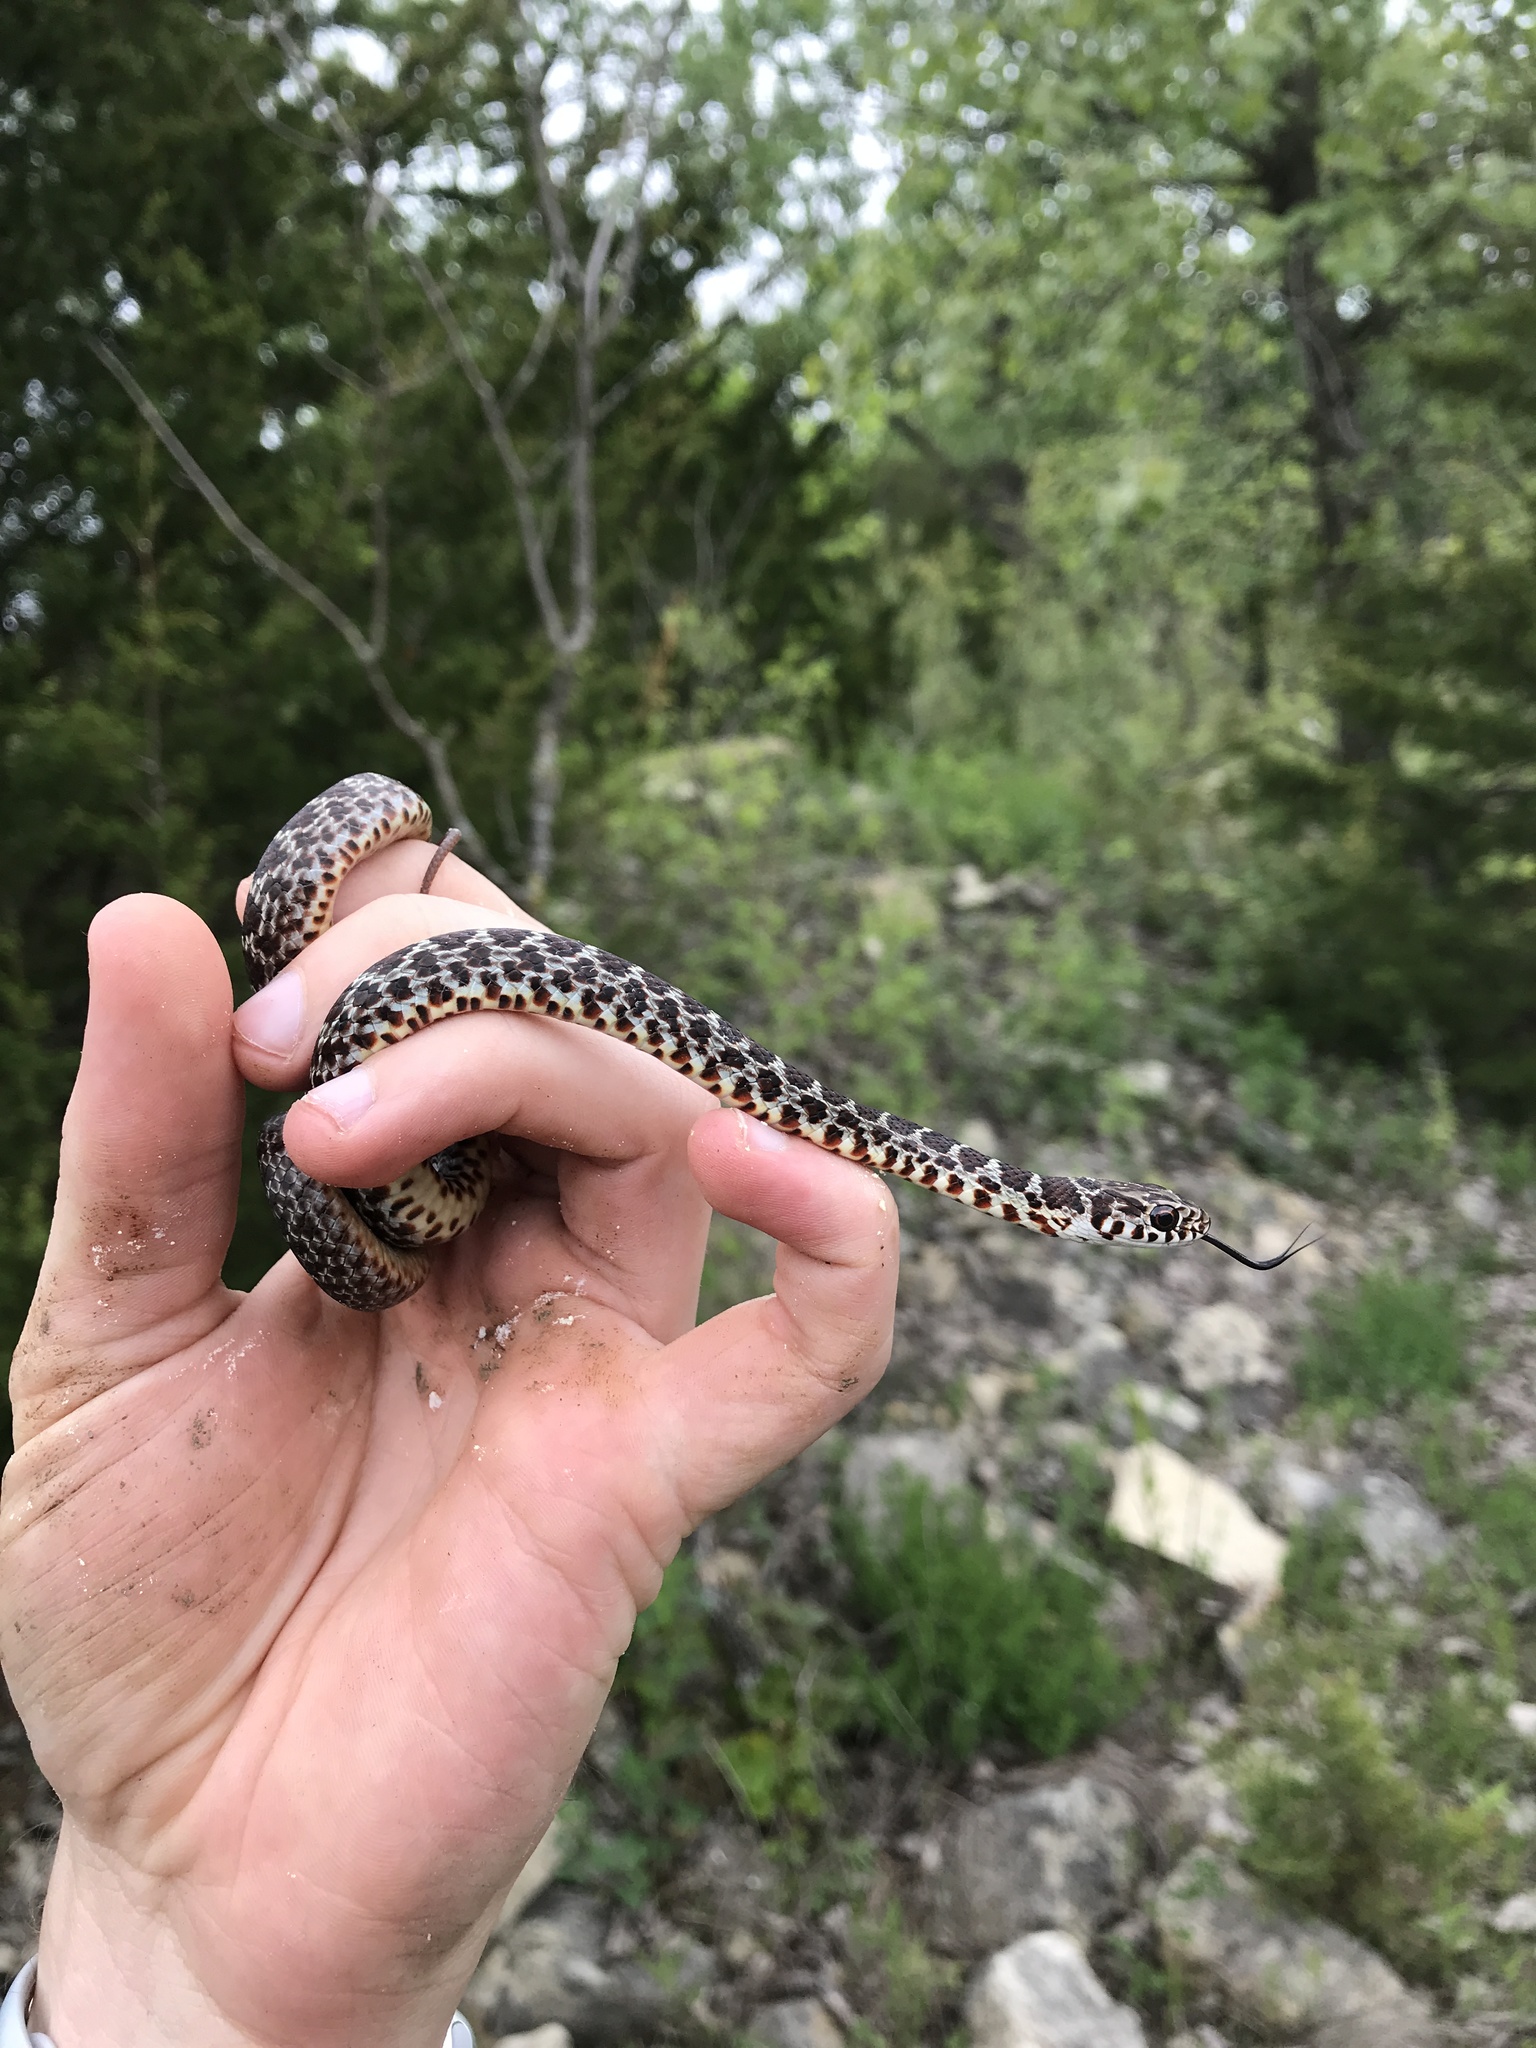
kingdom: Animalia
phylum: Chordata
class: Squamata
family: Colubridae
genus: Coluber
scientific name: Coluber constrictor
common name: Eastern racer
